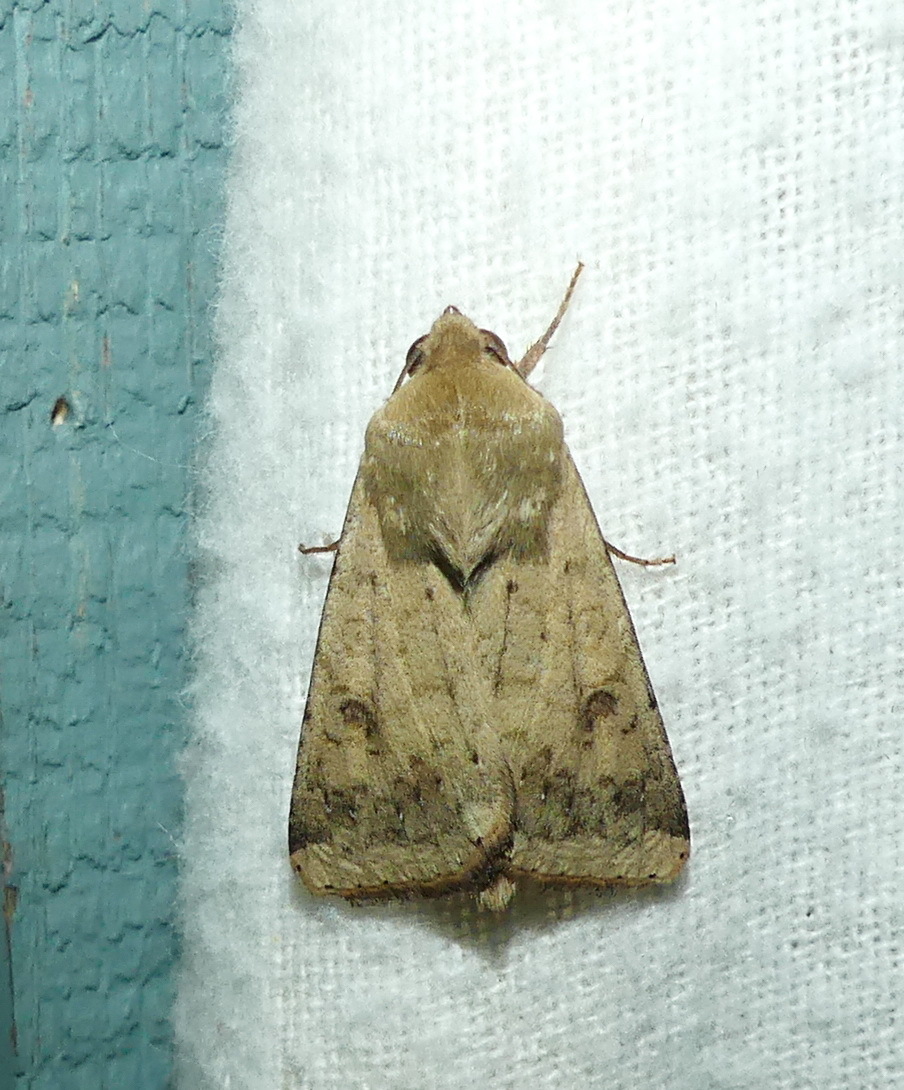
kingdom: Animalia
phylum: Arthropoda
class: Insecta
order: Lepidoptera
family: Noctuidae
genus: Helicoverpa
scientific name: Helicoverpa zea
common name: Bollworm
